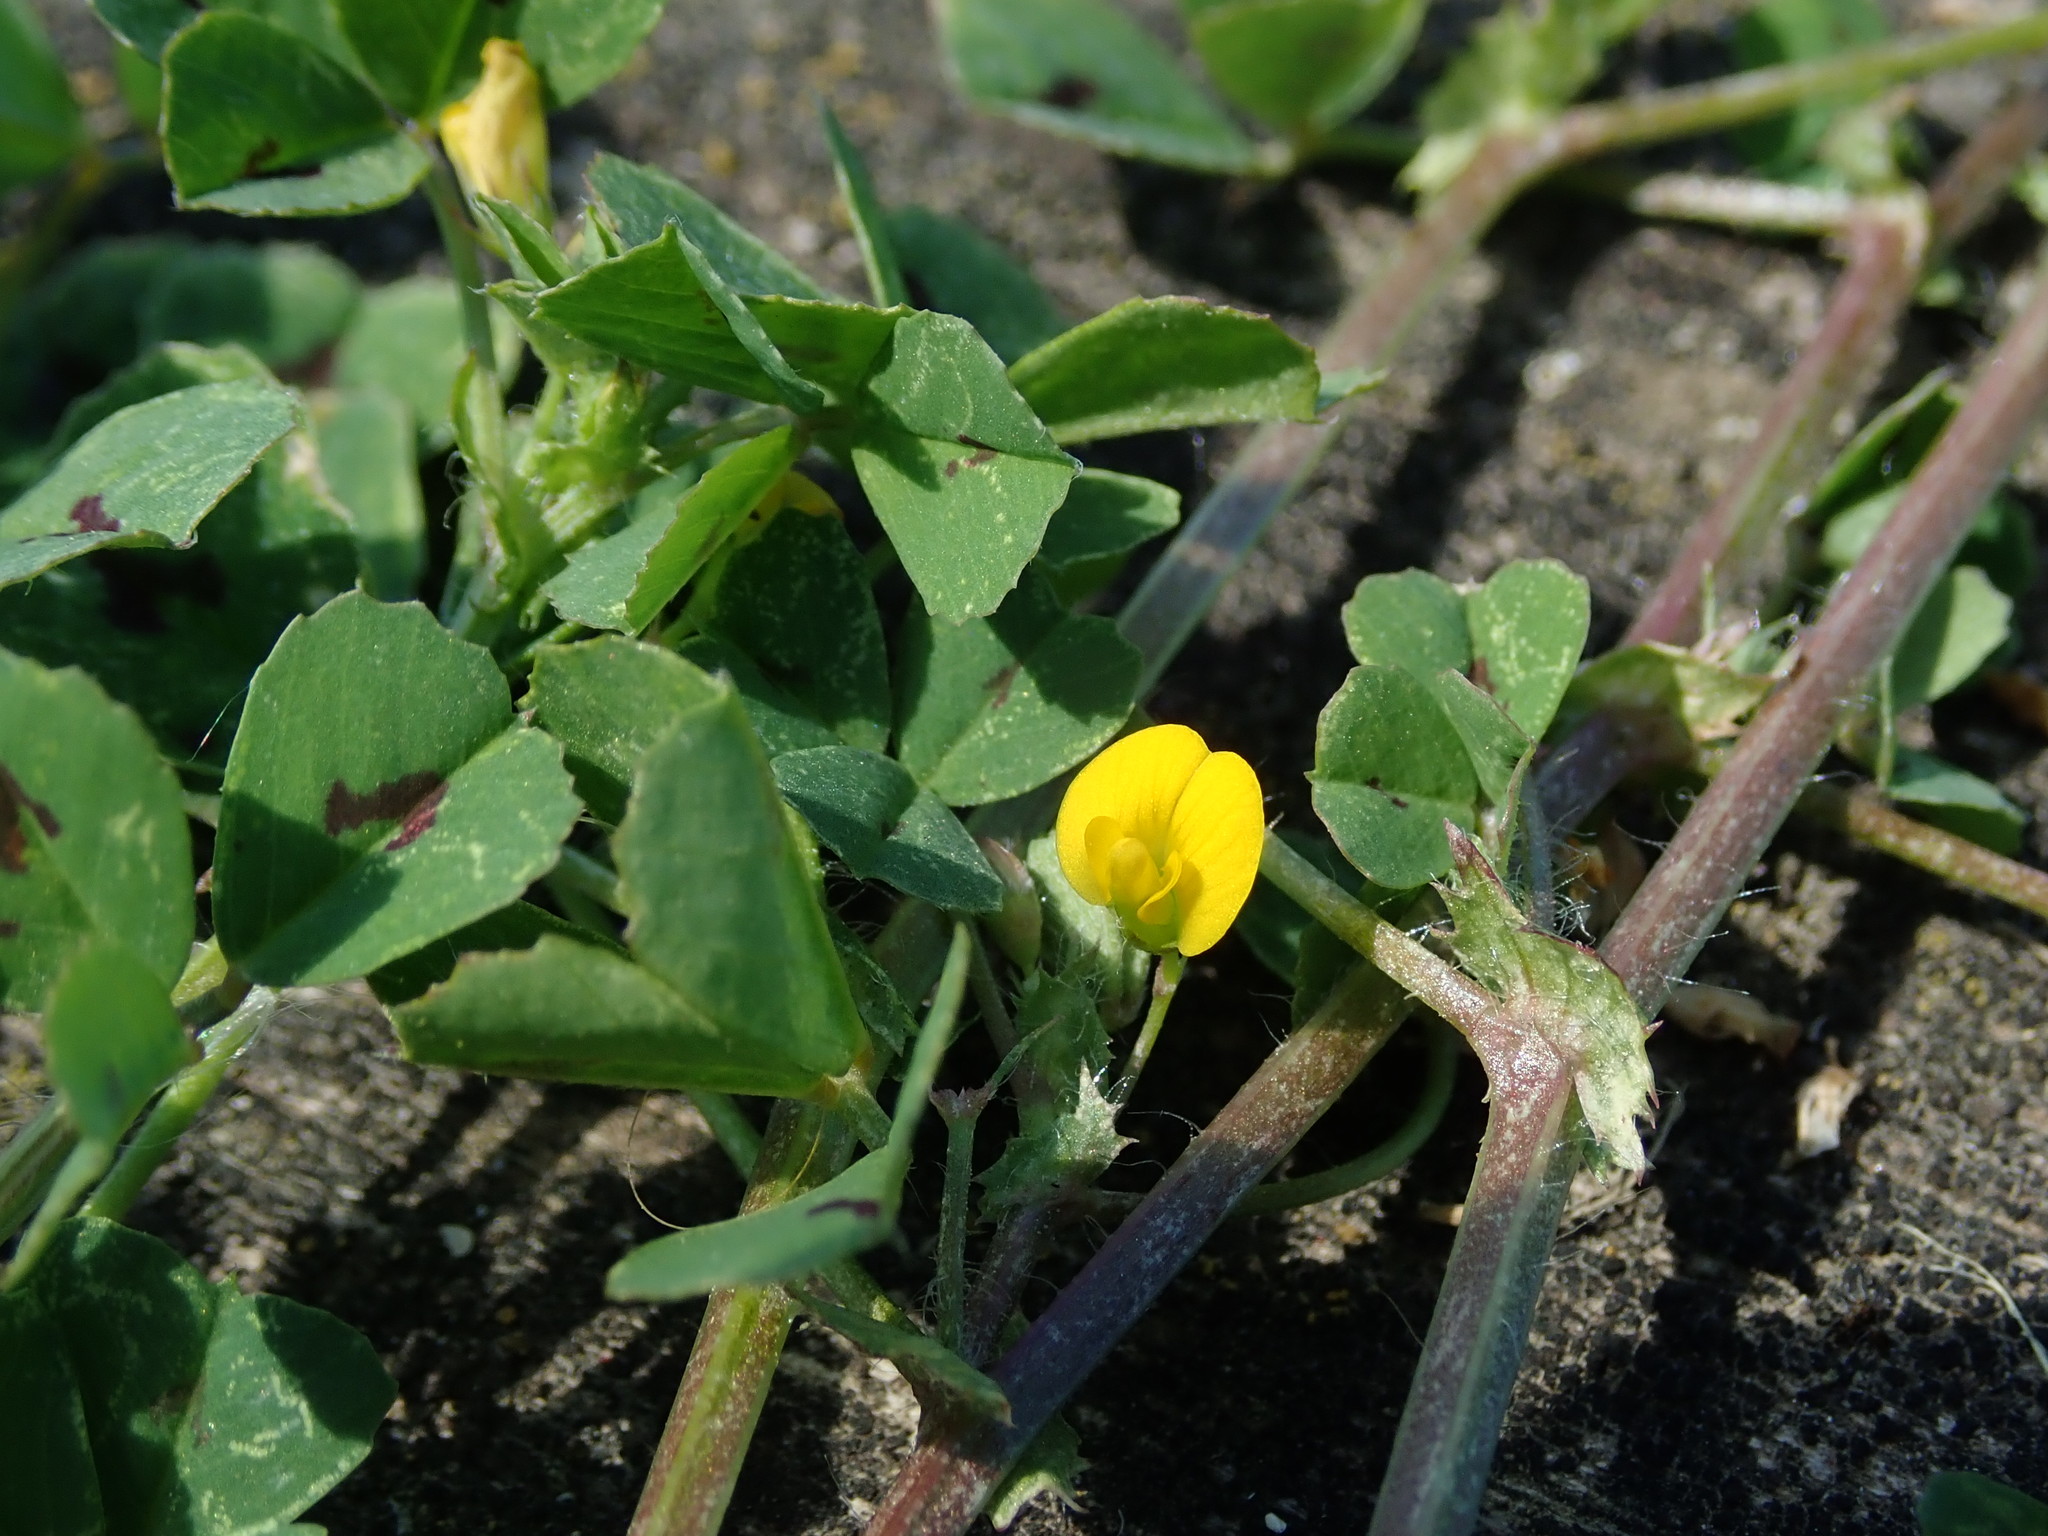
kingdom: Plantae
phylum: Tracheophyta
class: Magnoliopsida
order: Fabales
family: Fabaceae
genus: Medicago
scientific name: Medicago arabica
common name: Spotted medick
